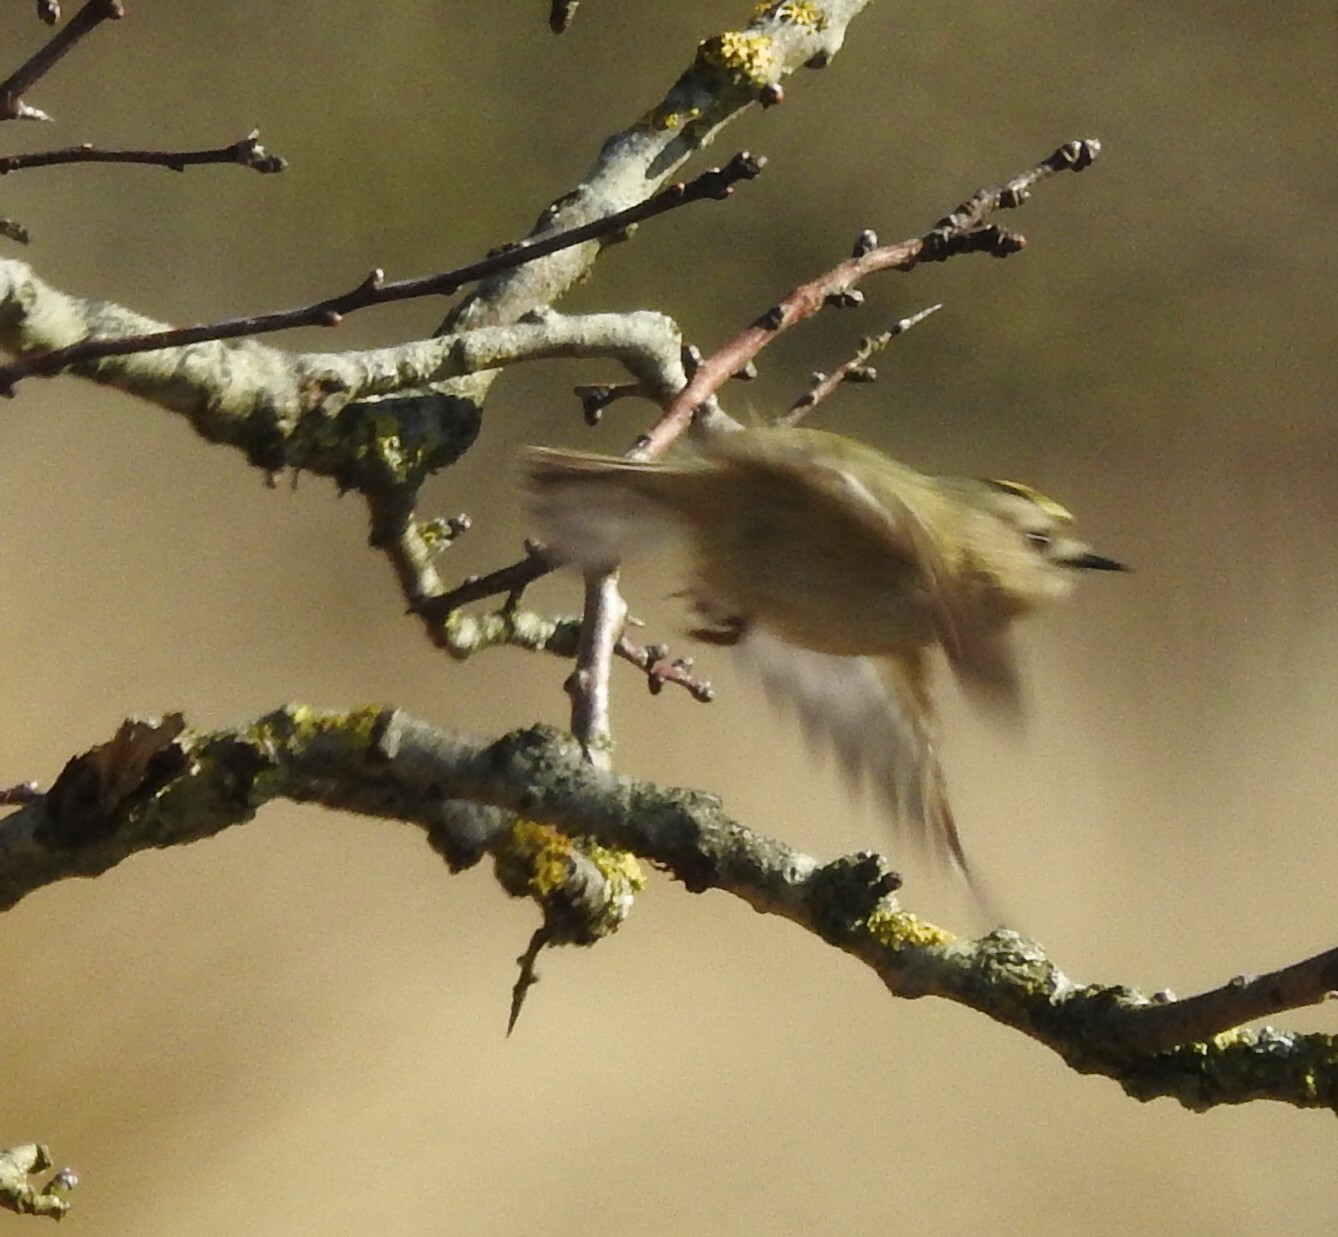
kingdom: Animalia
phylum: Chordata
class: Aves
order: Passeriformes
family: Regulidae
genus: Regulus
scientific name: Regulus regulus
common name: Goldcrest
